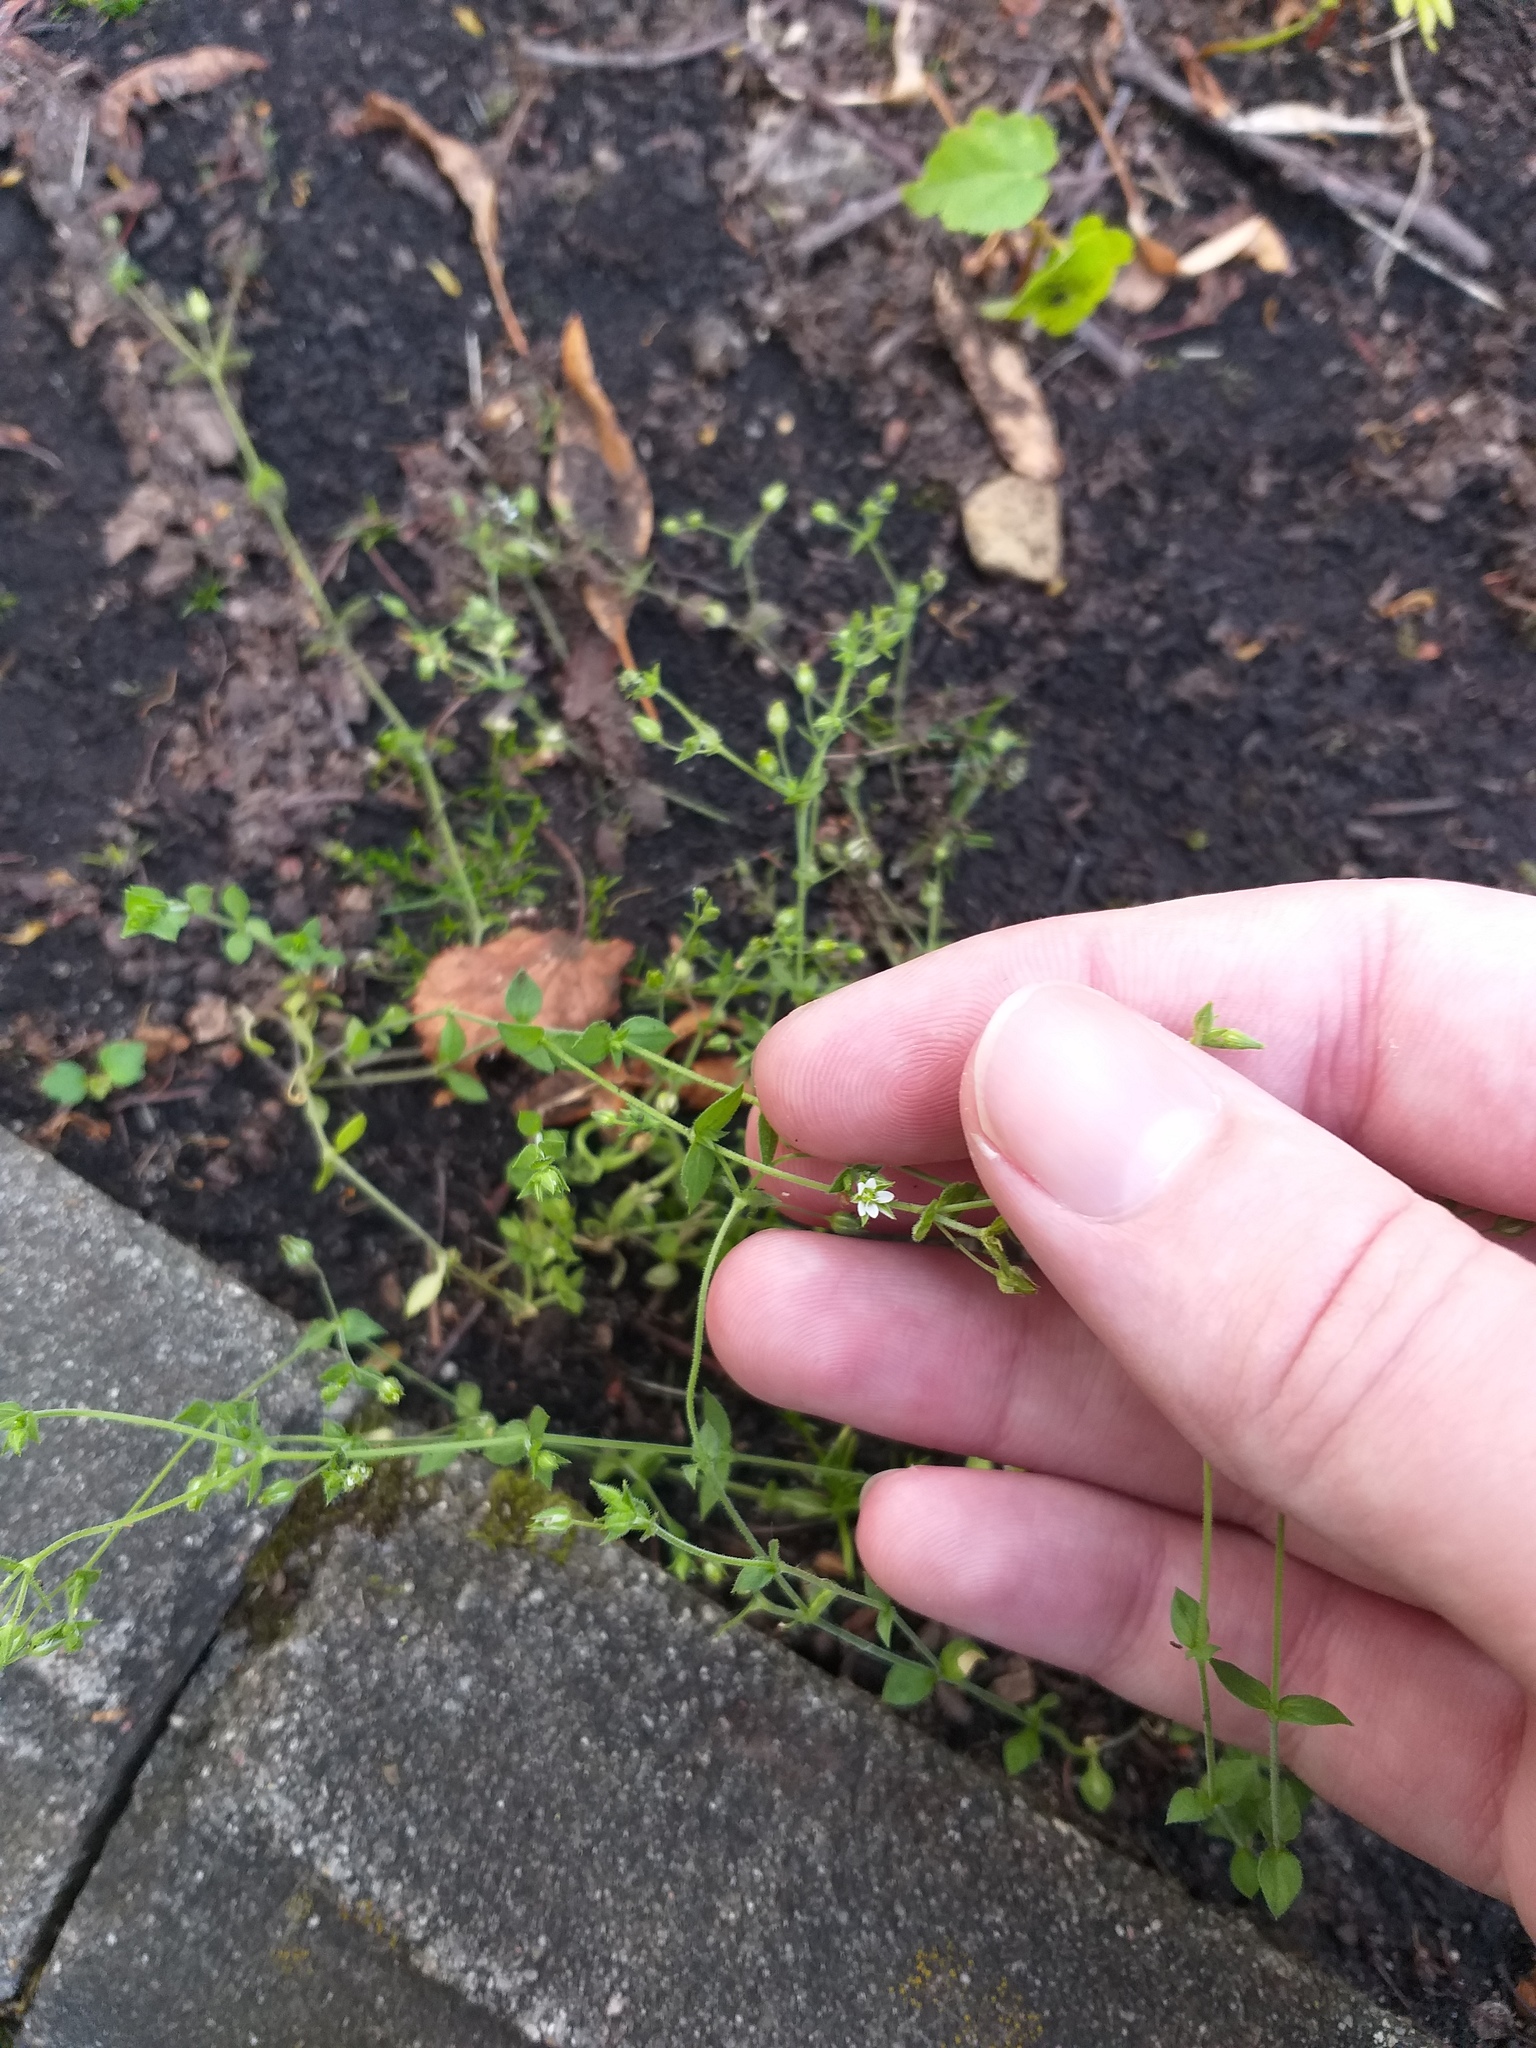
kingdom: Plantae
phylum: Tracheophyta
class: Magnoliopsida
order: Caryophyllales
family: Caryophyllaceae
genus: Arenaria
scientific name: Arenaria serpyllifolia
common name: Thyme-leaved sandwort
